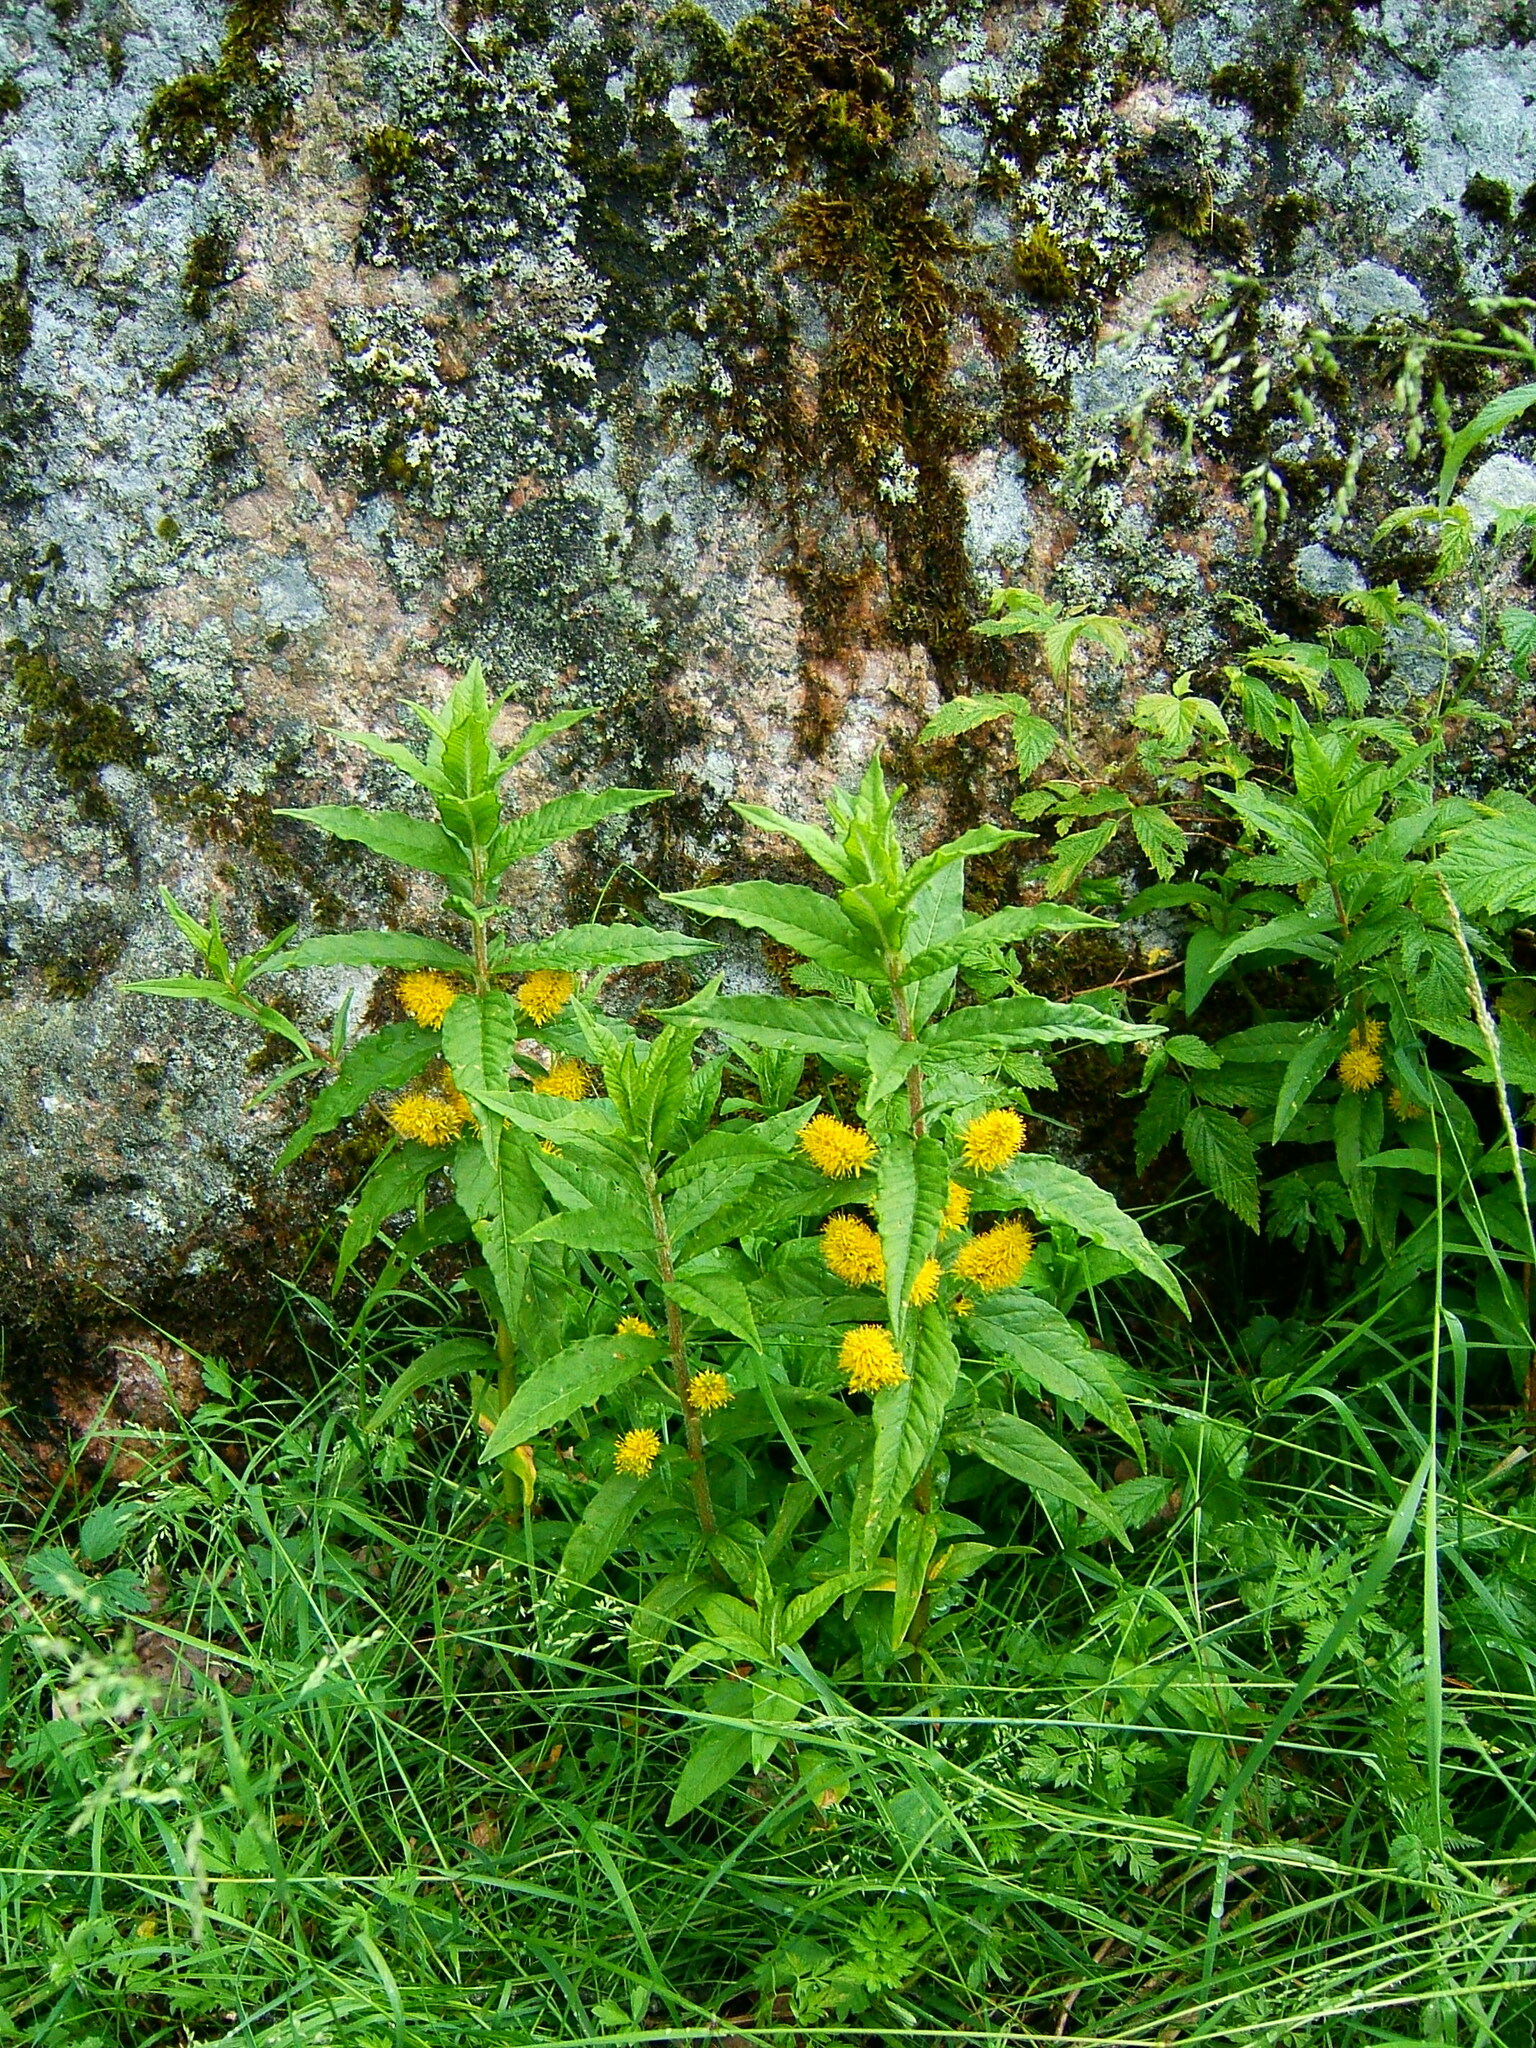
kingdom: Plantae
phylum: Tracheophyta
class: Magnoliopsida
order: Ericales
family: Primulaceae
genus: Lysimachia
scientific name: Lysimachia thyrsiflora
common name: Tufted loosestrife
